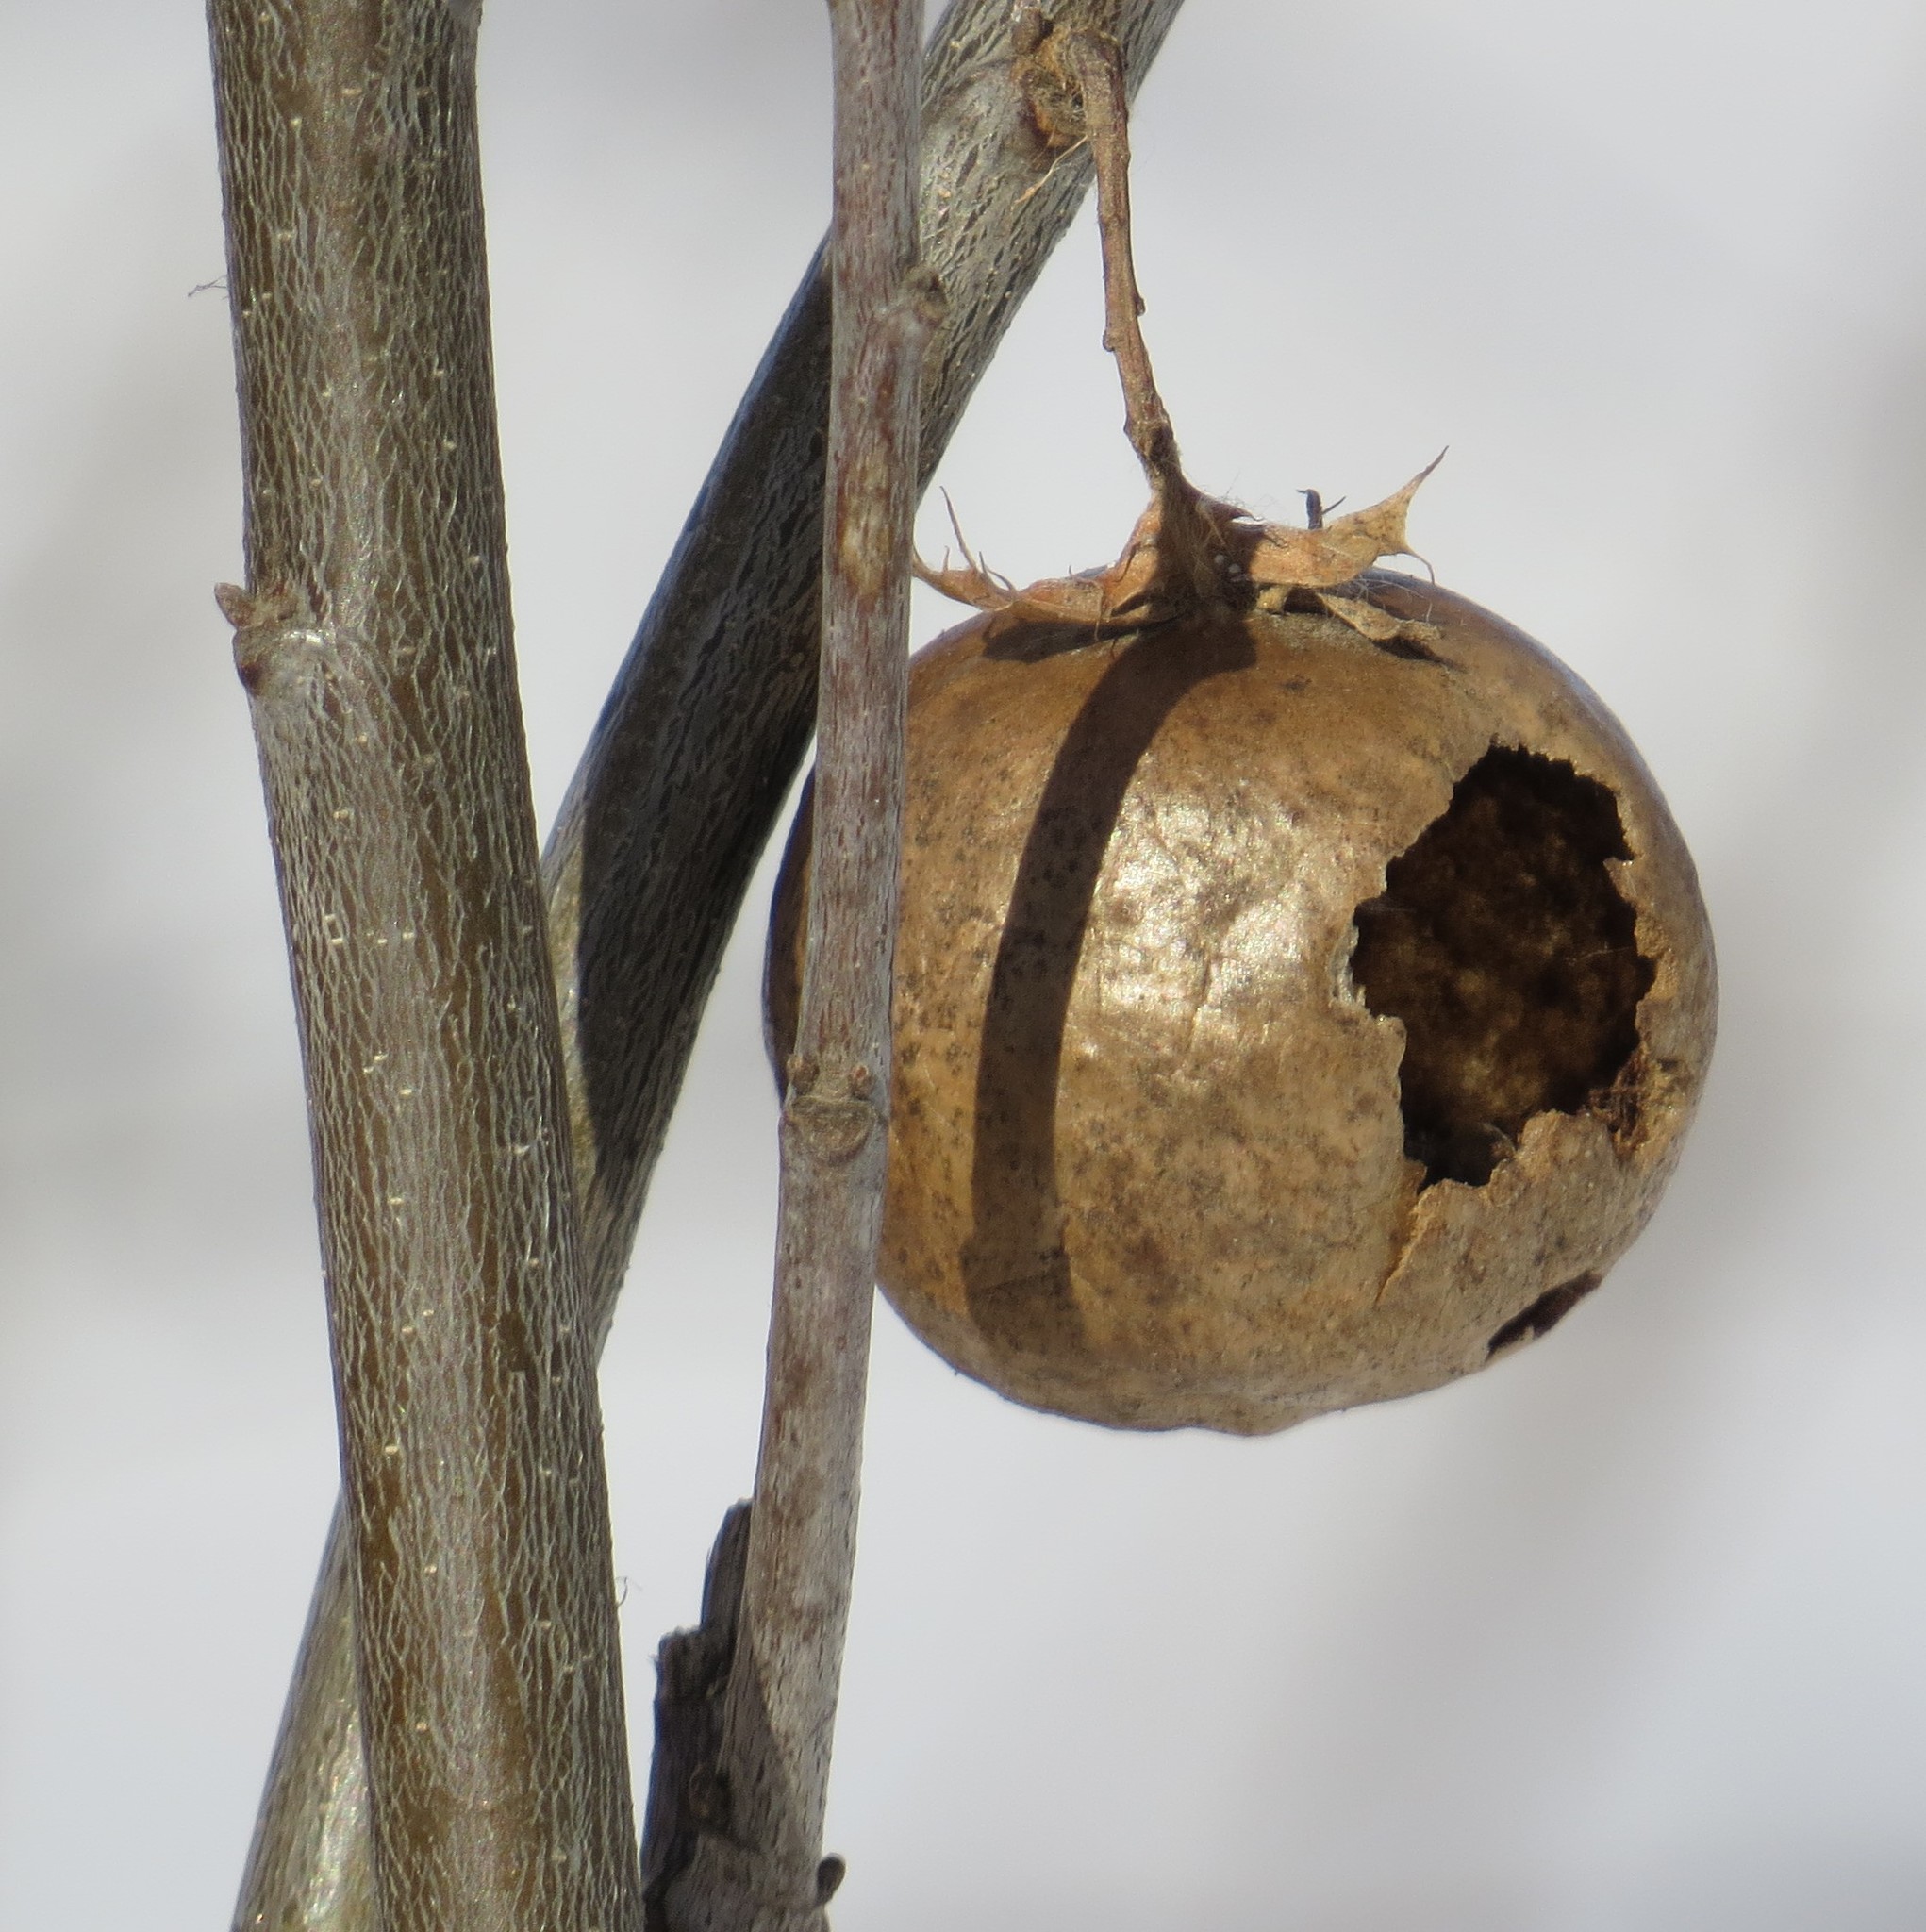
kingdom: Animalia
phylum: Arthropoda
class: Insecta
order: Hymenoptera
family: Cynipidae
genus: Amphibolips
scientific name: Amphibolips
